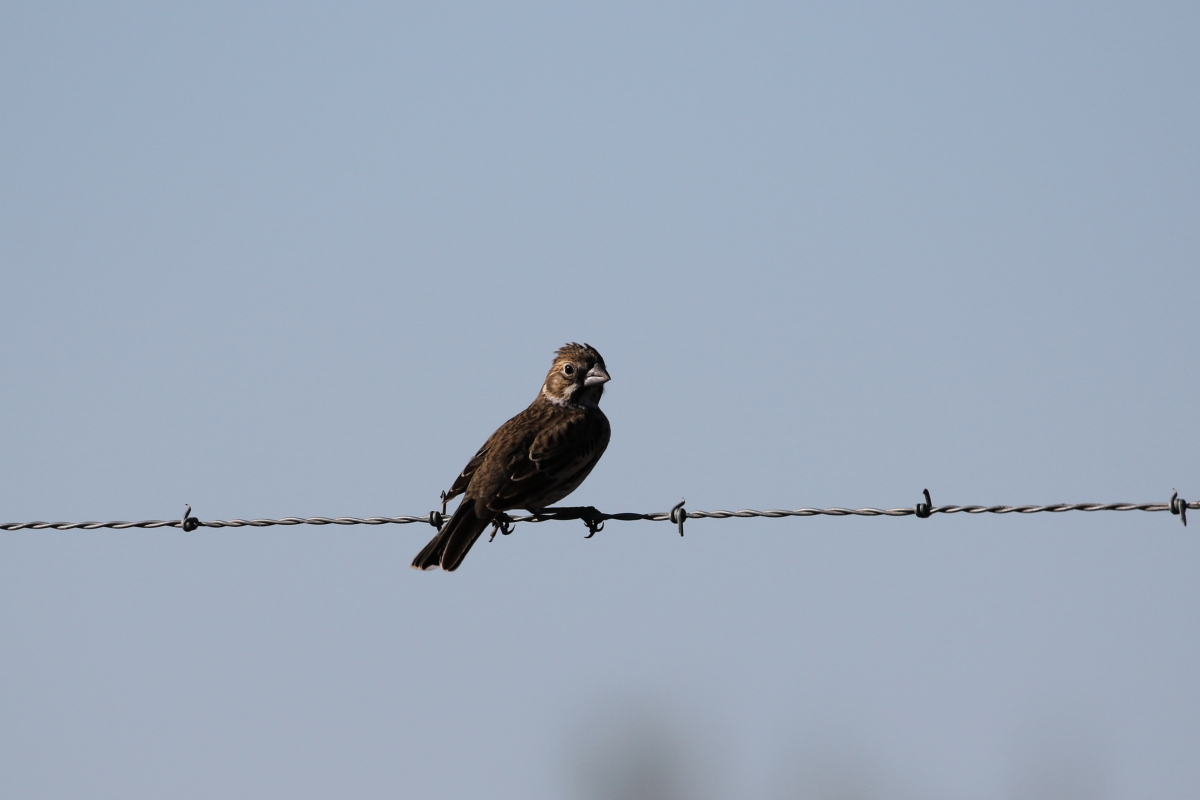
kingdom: Animalia
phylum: Chordata
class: Aves
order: Passeriformes
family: Passerellidae
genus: Calamospiza
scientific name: Calamospiza melanocorys
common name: Lark bunting
